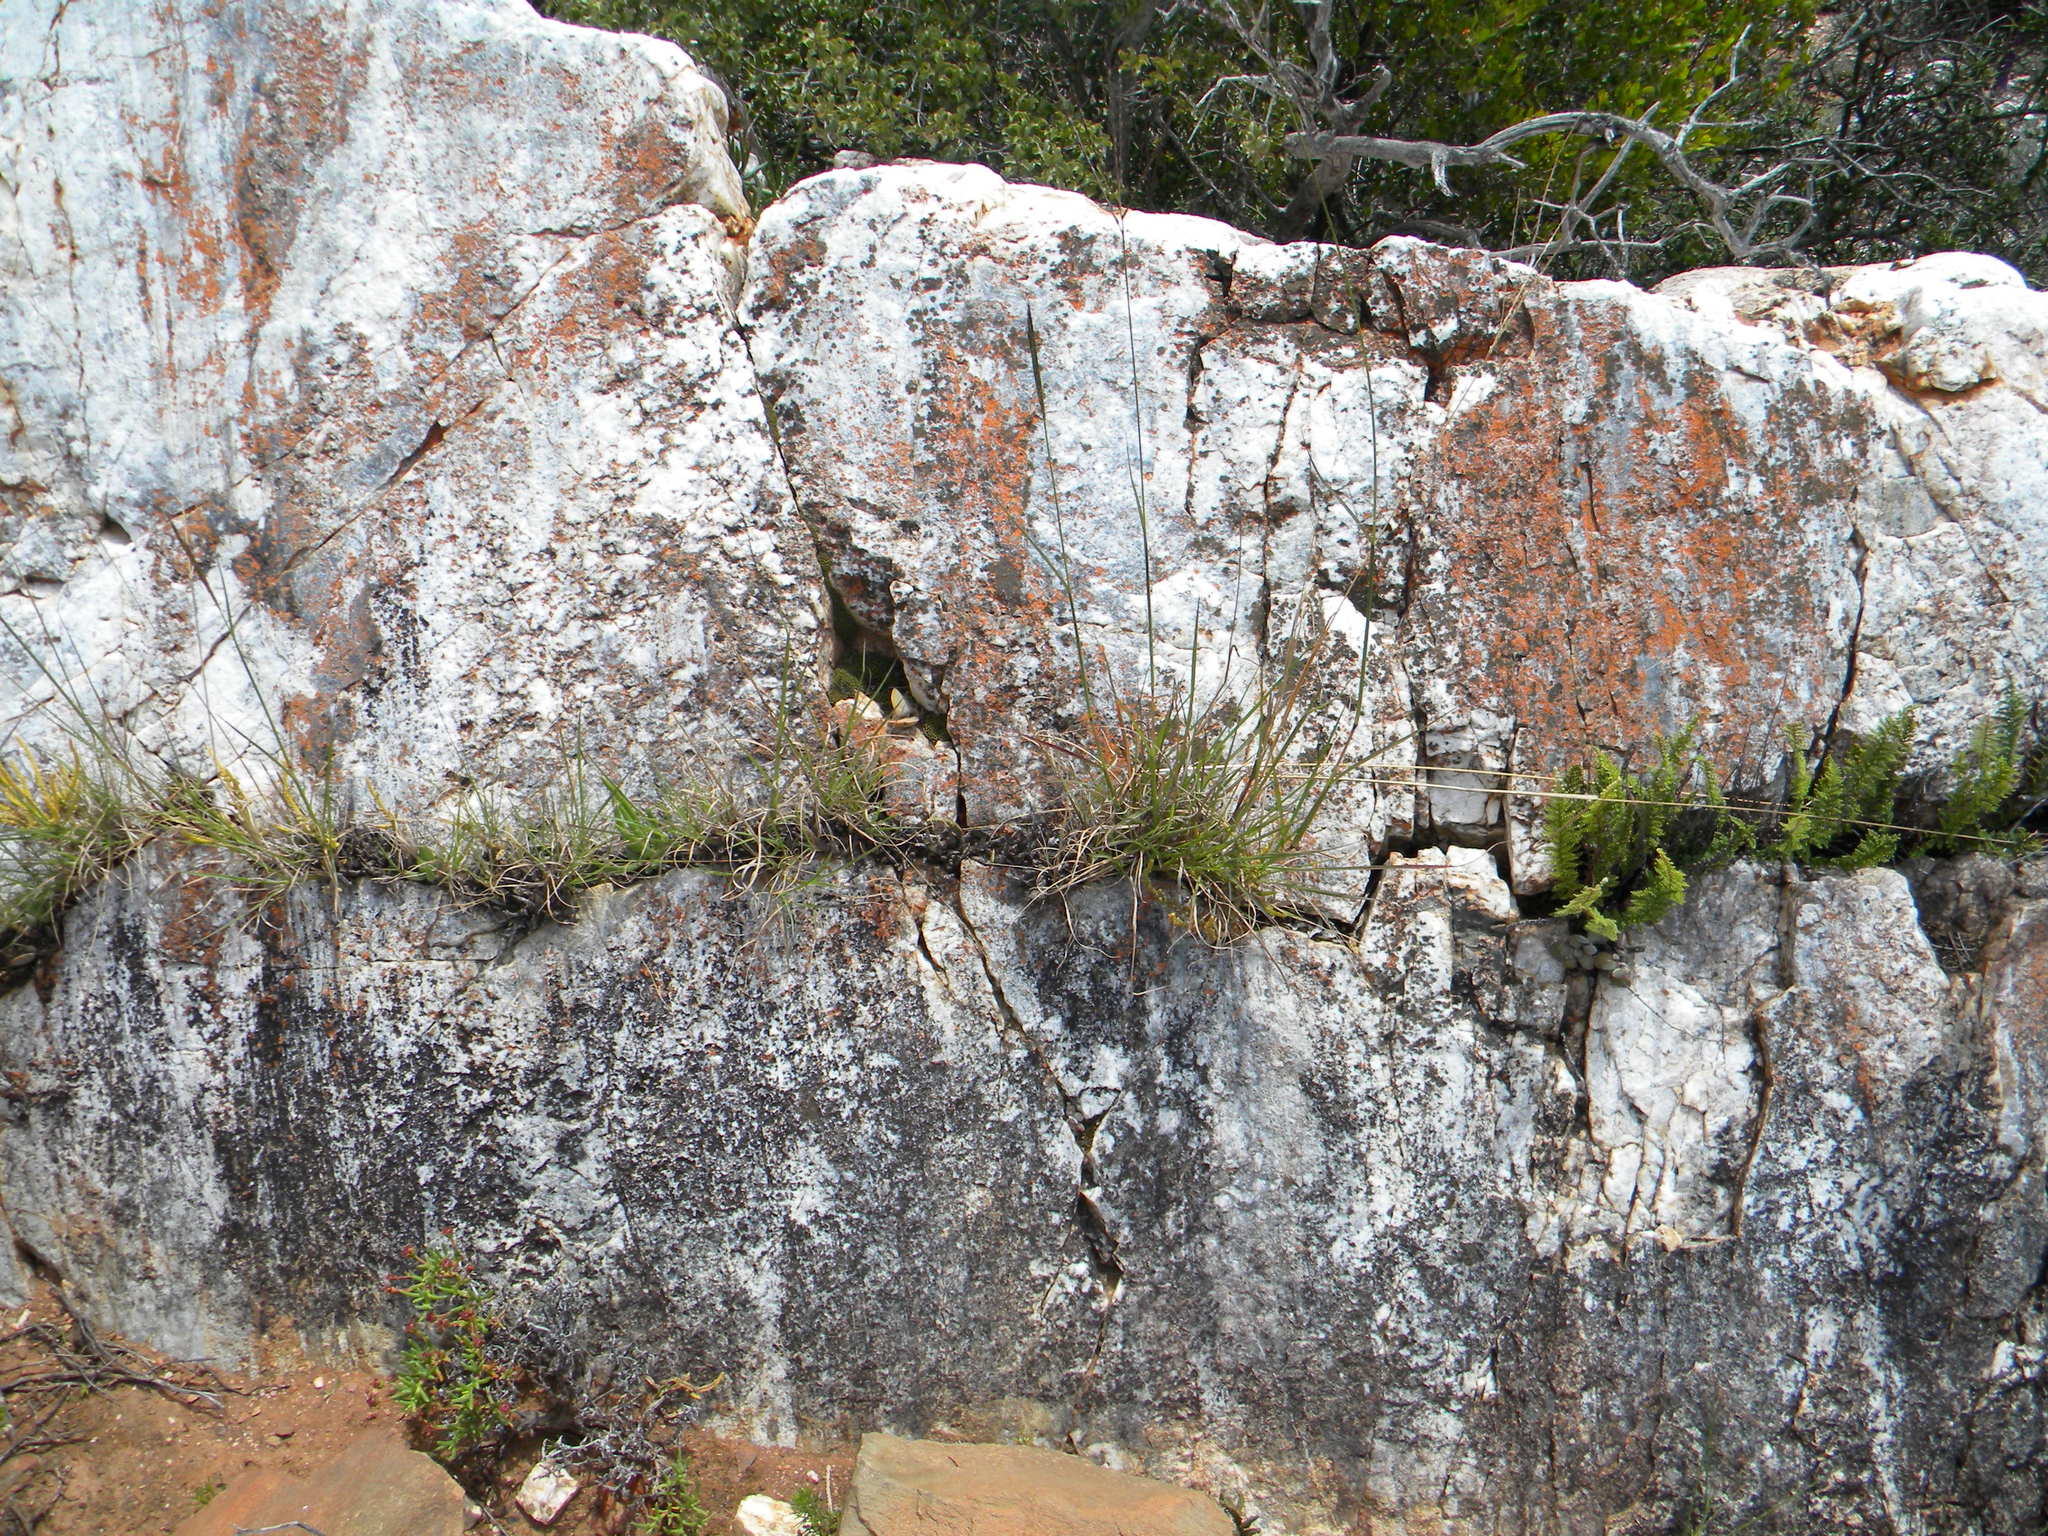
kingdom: Plantae
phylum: Tracheophyta
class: Liliopsida
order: Poales
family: Poaceae
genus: Digitaria
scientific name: Digitaria eriantha
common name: Digitgrass
